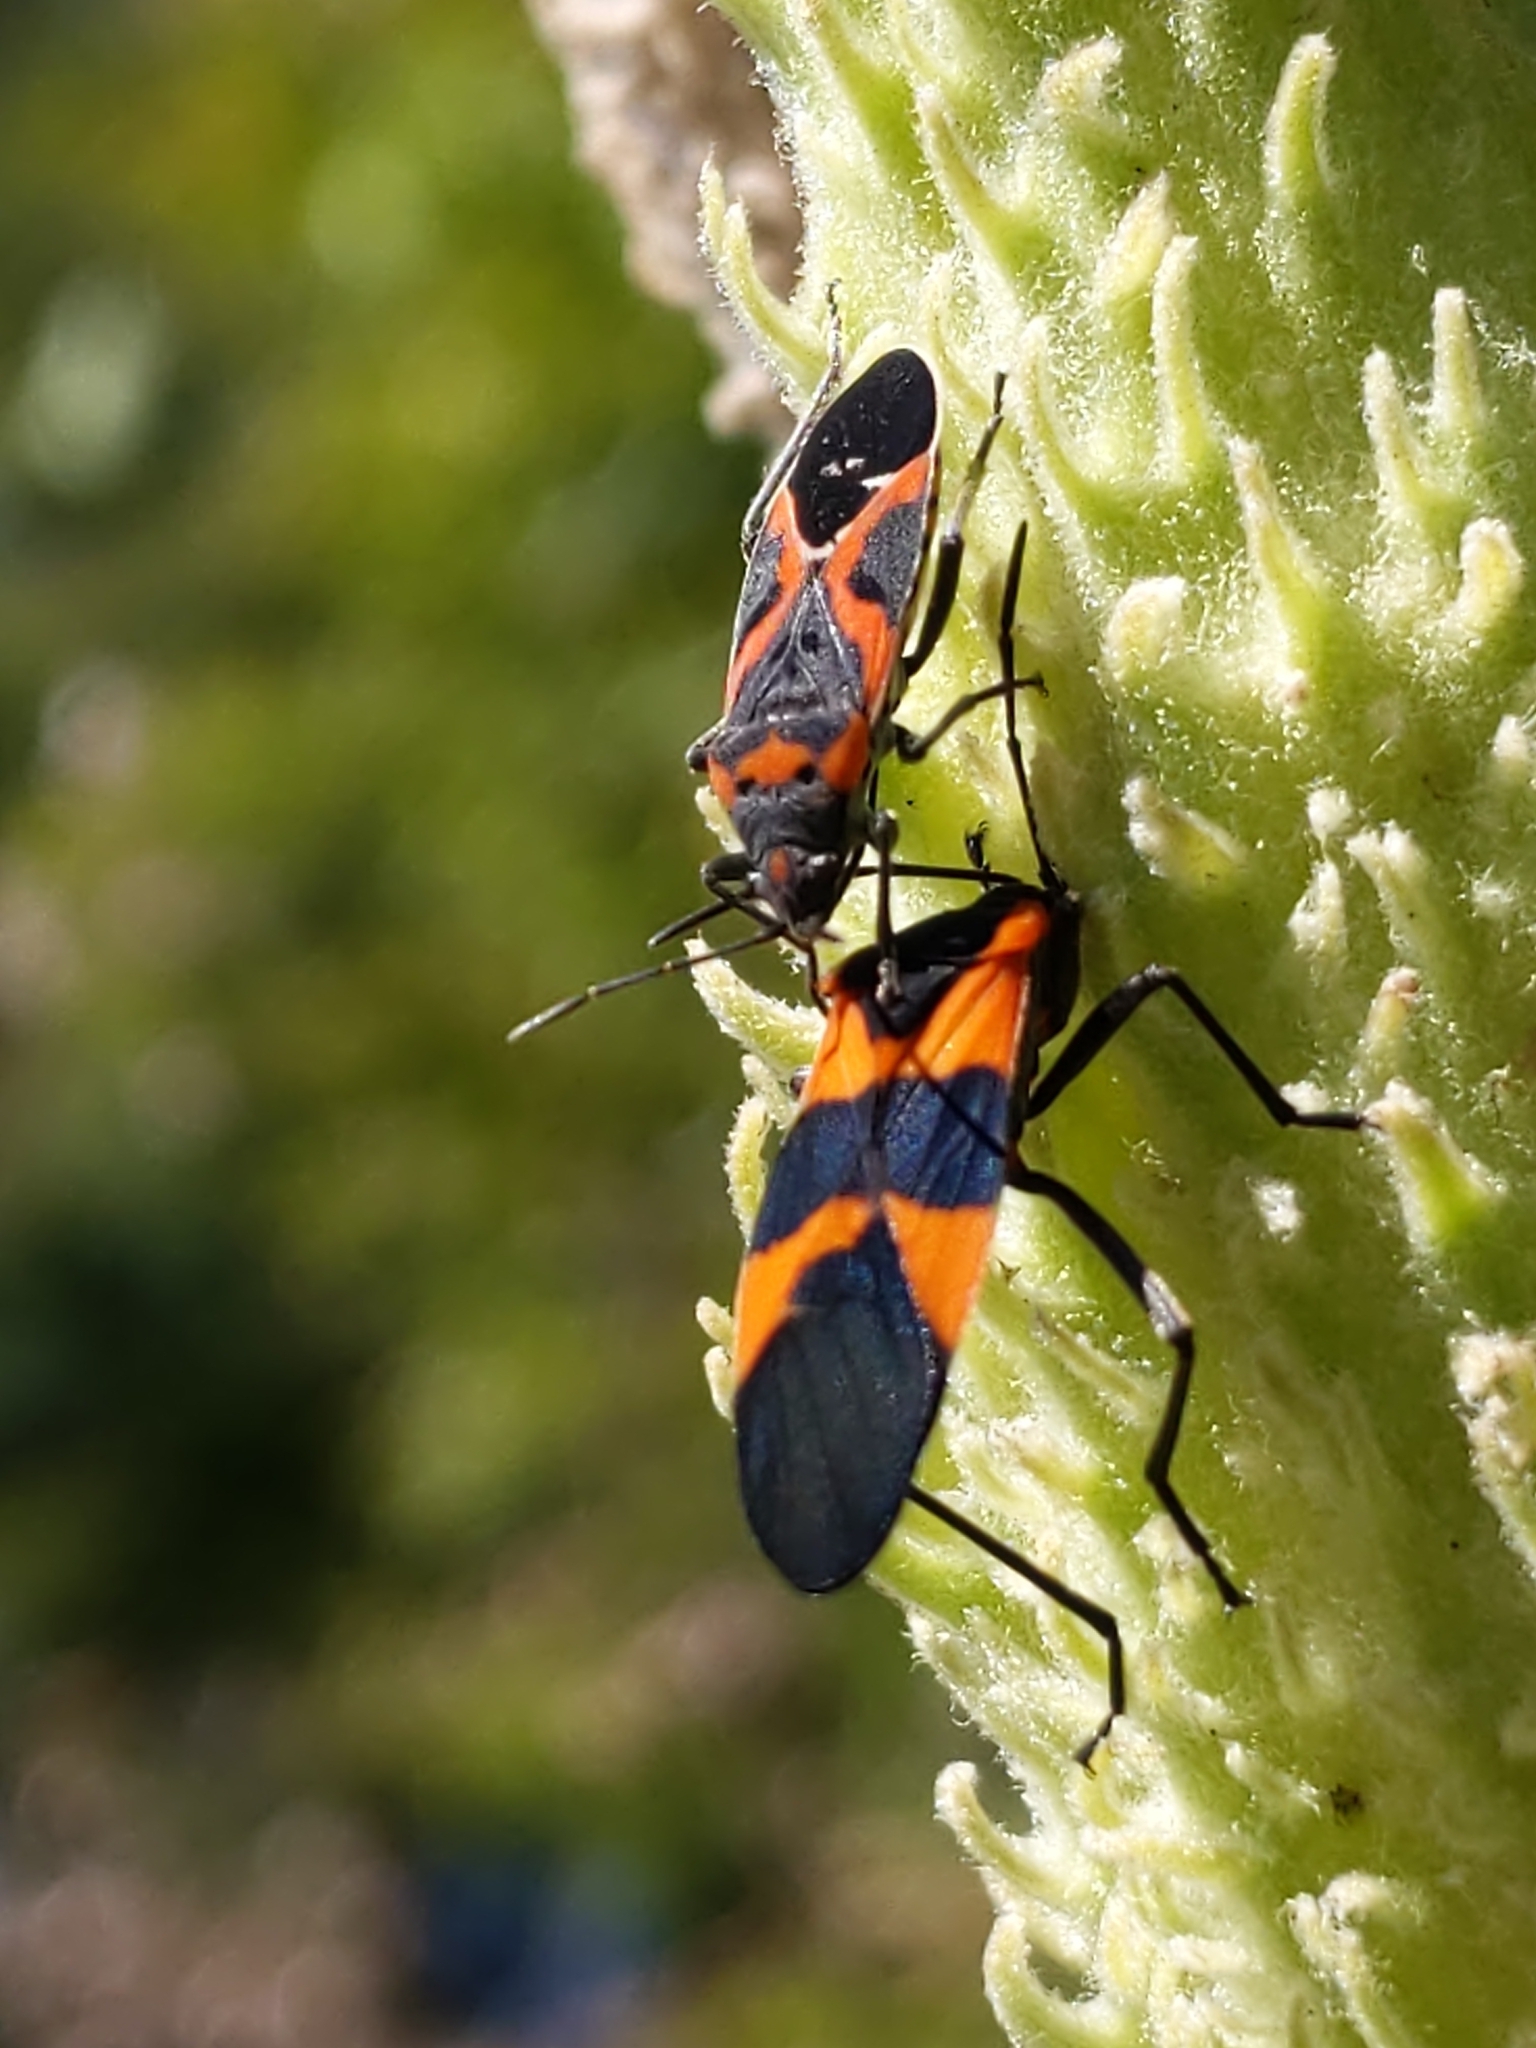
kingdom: Animalia
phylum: Arthropoda
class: Insecta
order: Hemiptera
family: Lygaeidae
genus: Oncopeltus
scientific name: Oncopeltus fasciatus
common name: Large milkweed bug
